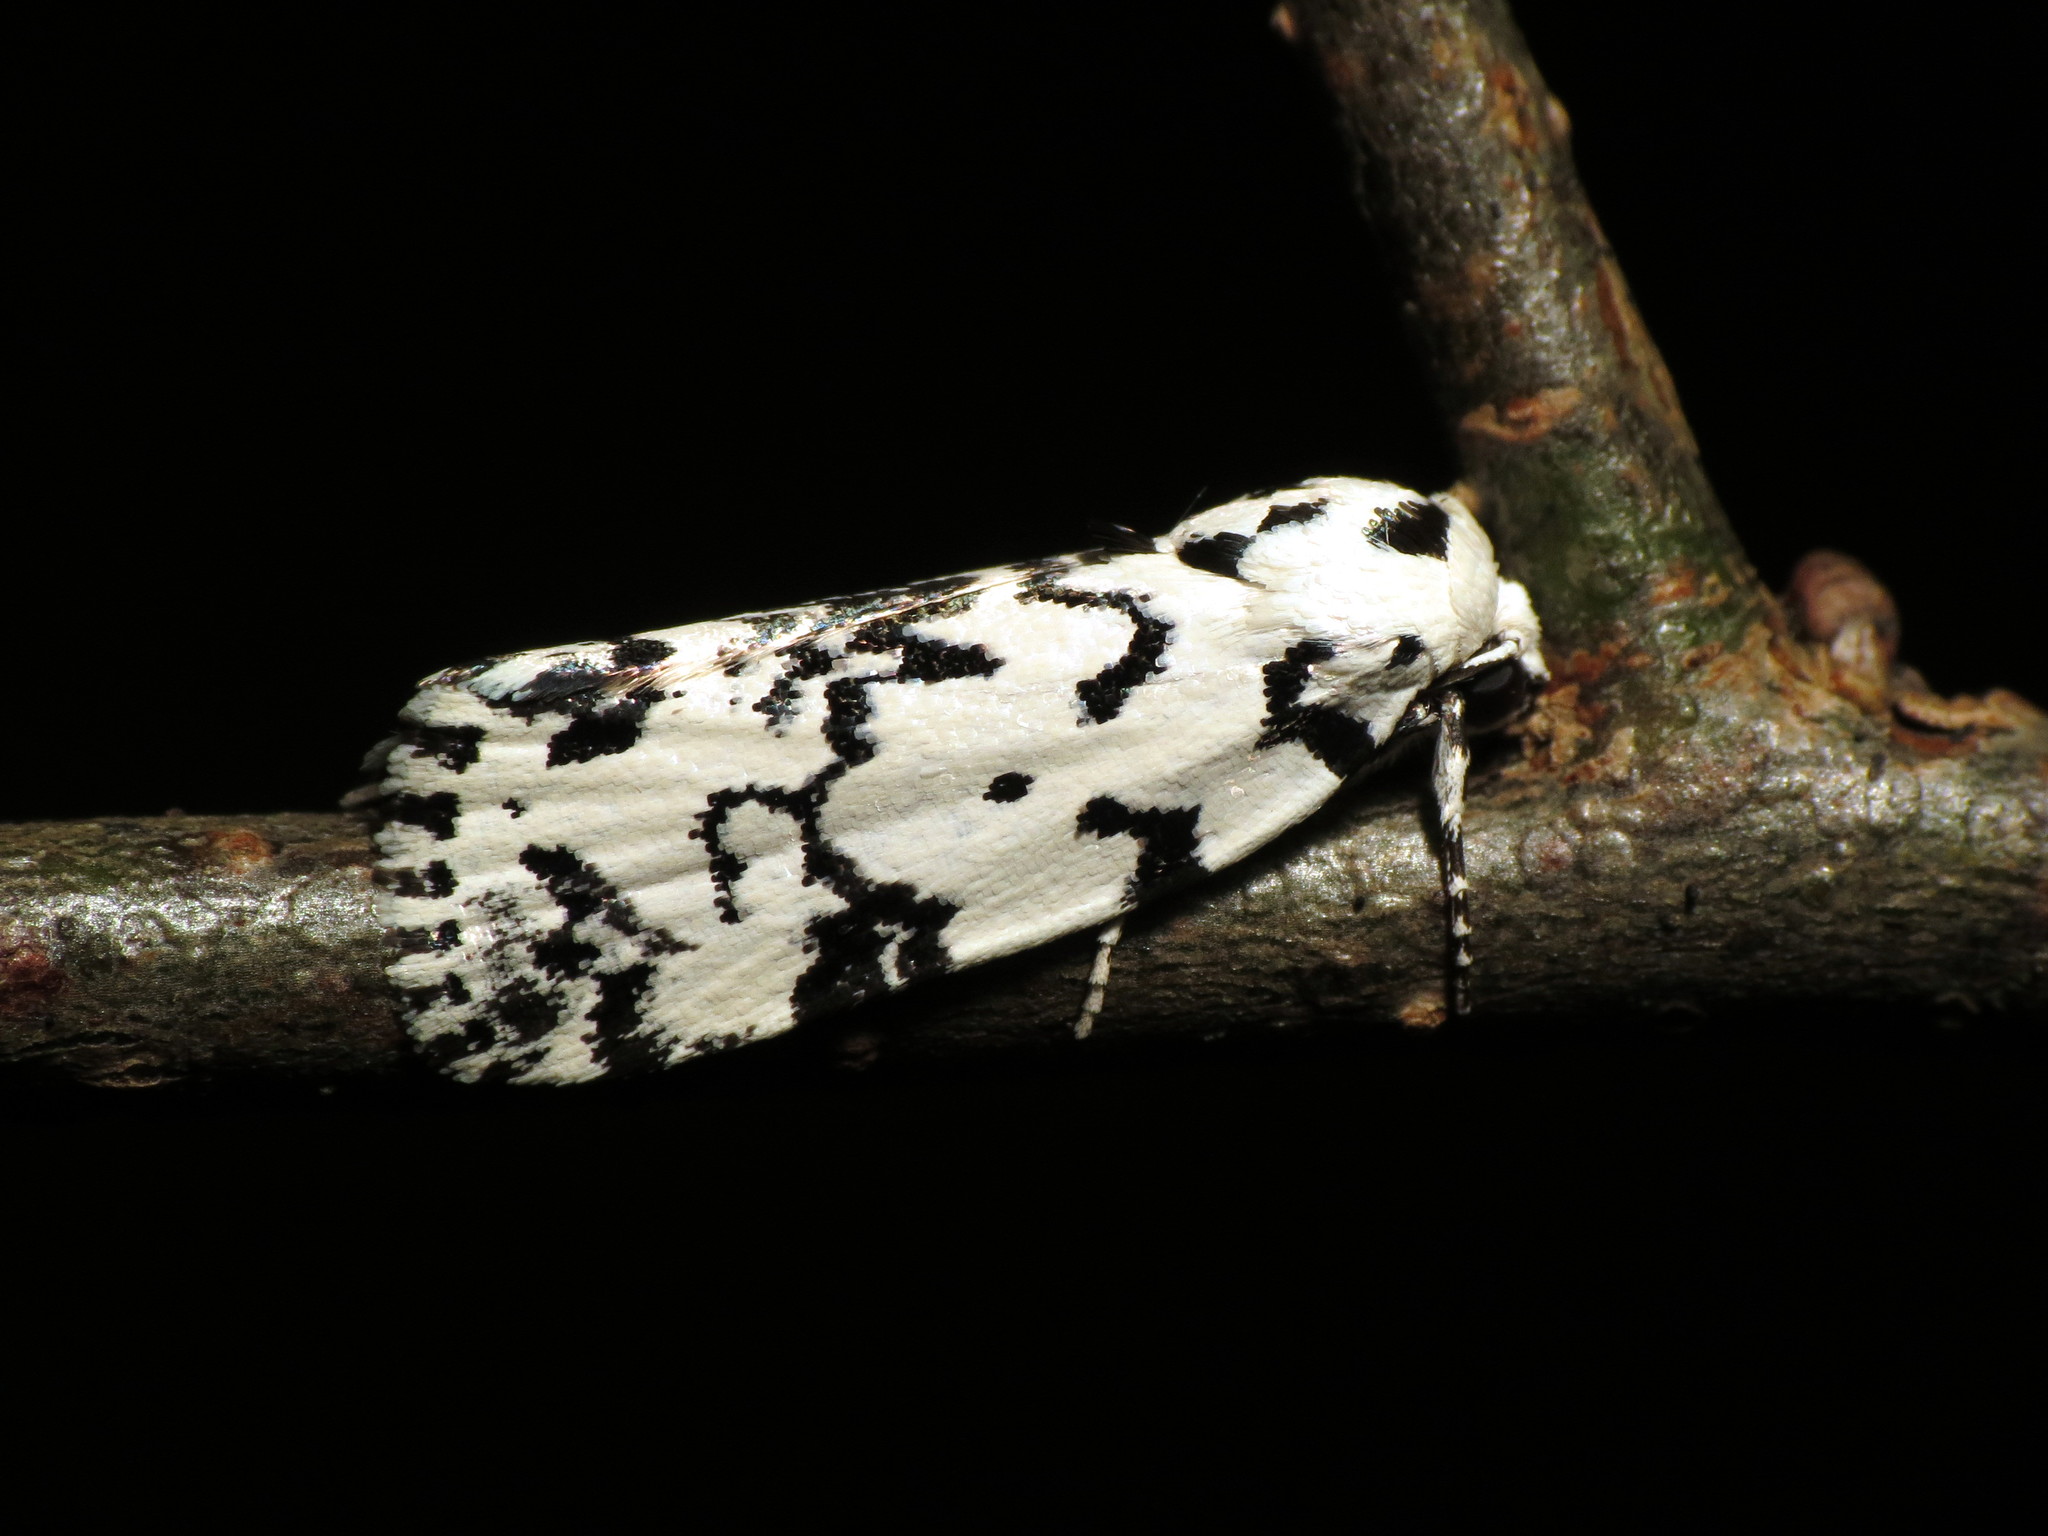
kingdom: Animalia
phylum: Arthropoda
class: Insecta
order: Lepidoptera
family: Noctuidae
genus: Polygrammate
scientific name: Polygrammate hebraeicum
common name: Hebrew moth
